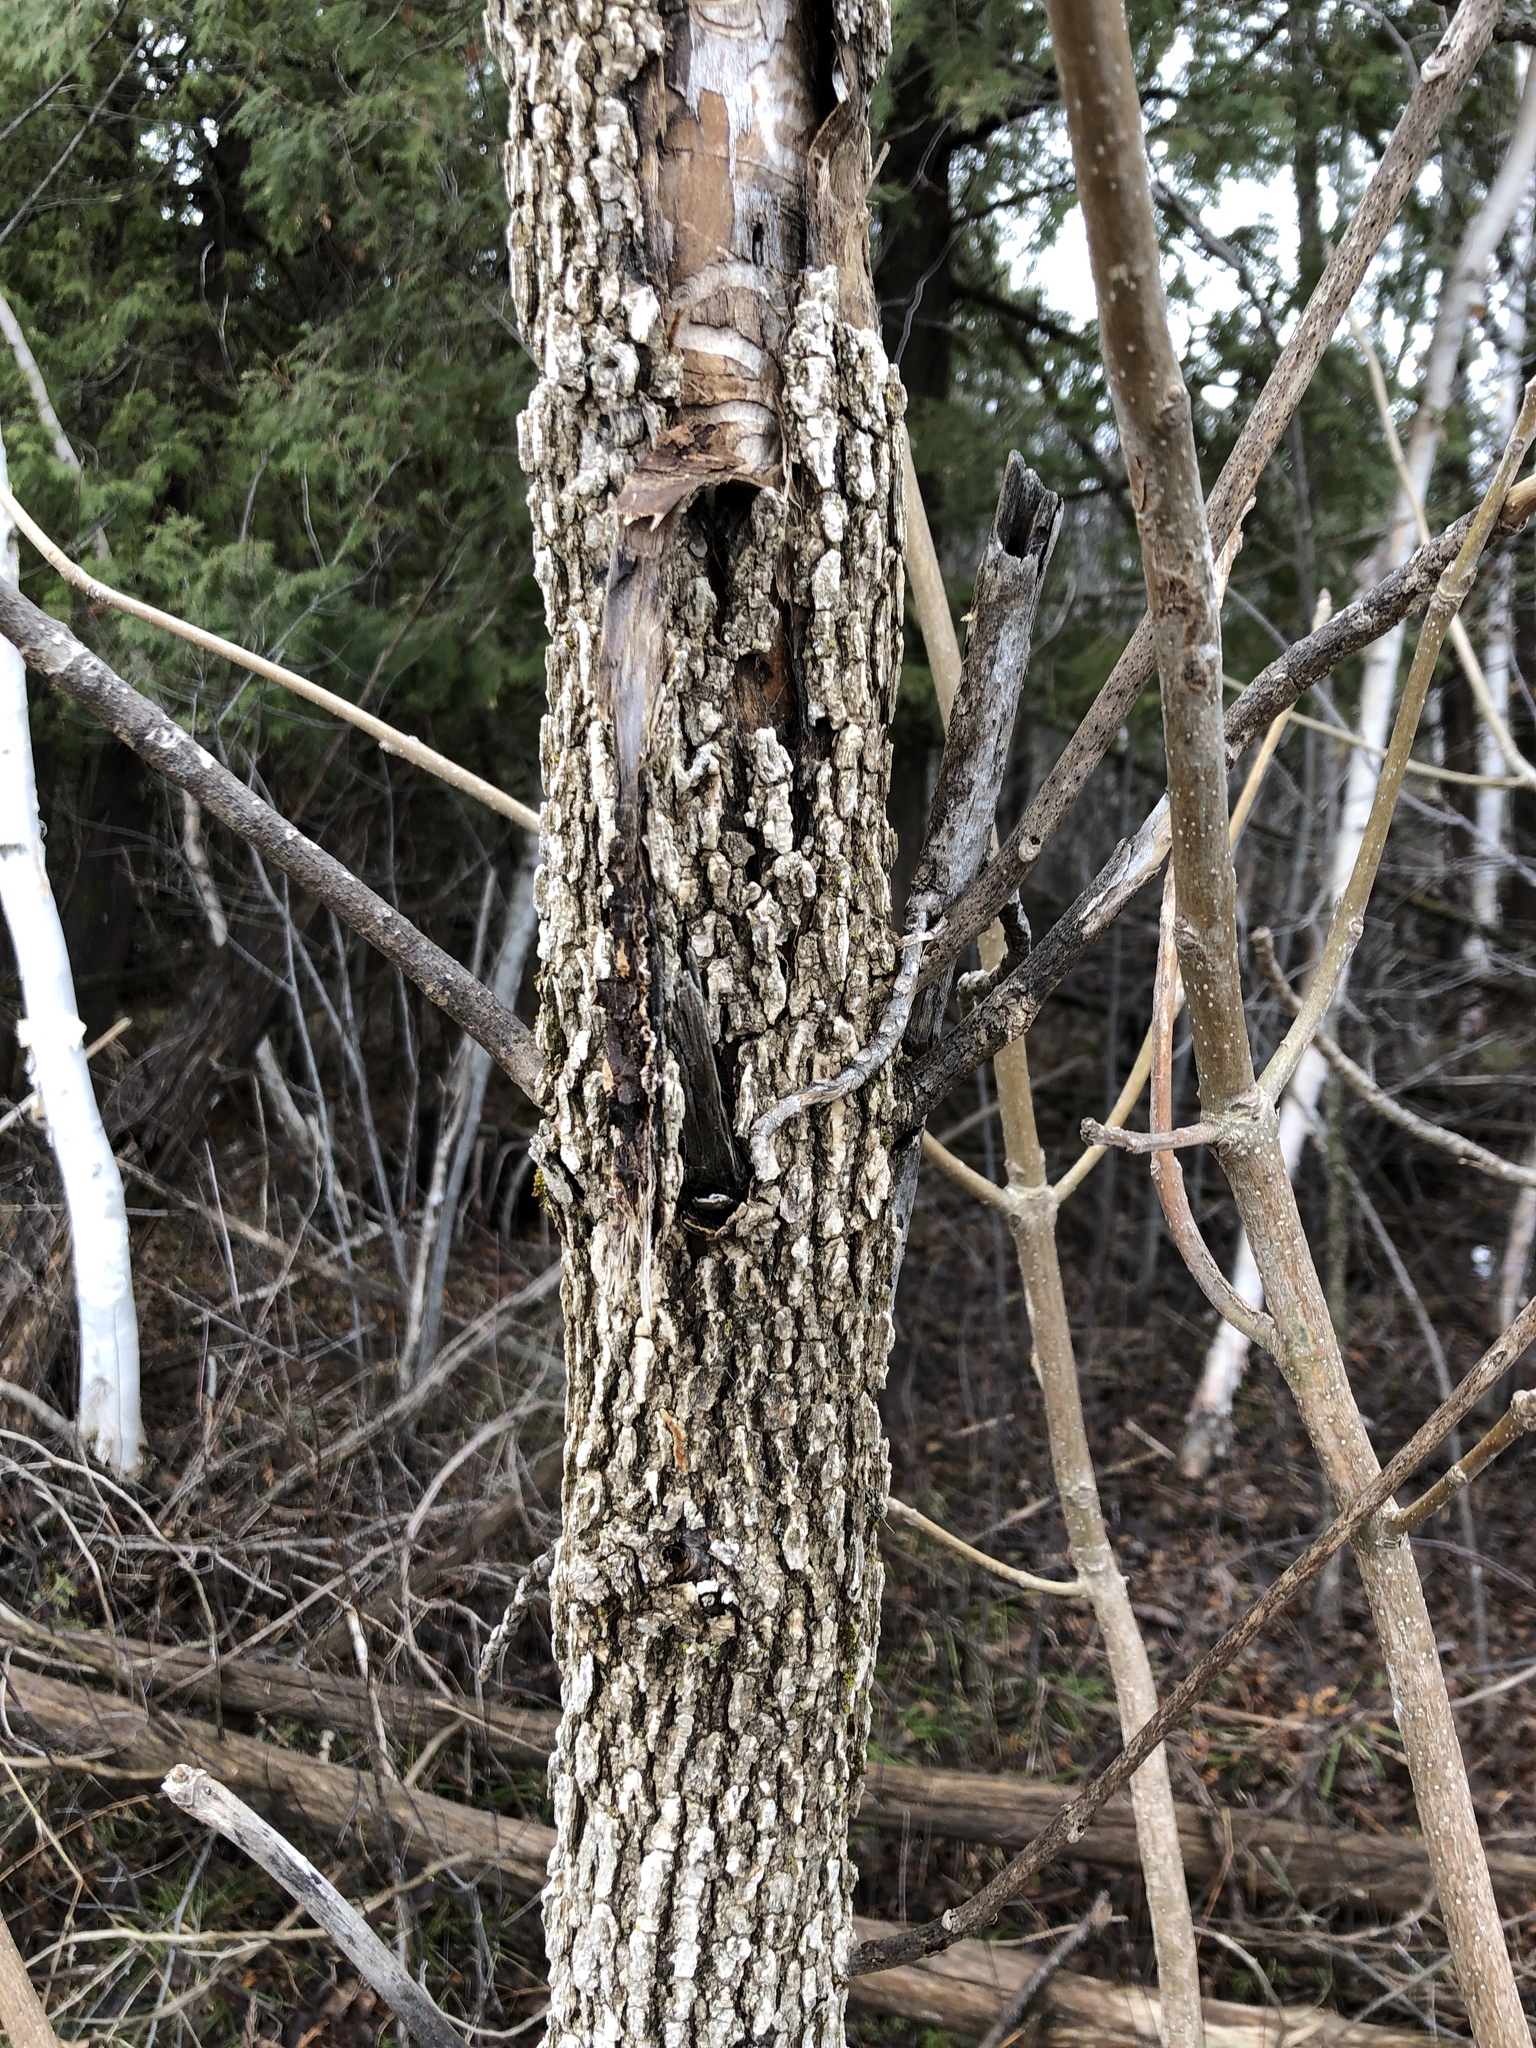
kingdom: Plantae
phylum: Tracheophyta
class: Magnoliopsida
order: Lamiales
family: Oleaceae
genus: Fraxinus
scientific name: Fraxinus nigra
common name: Black ash
